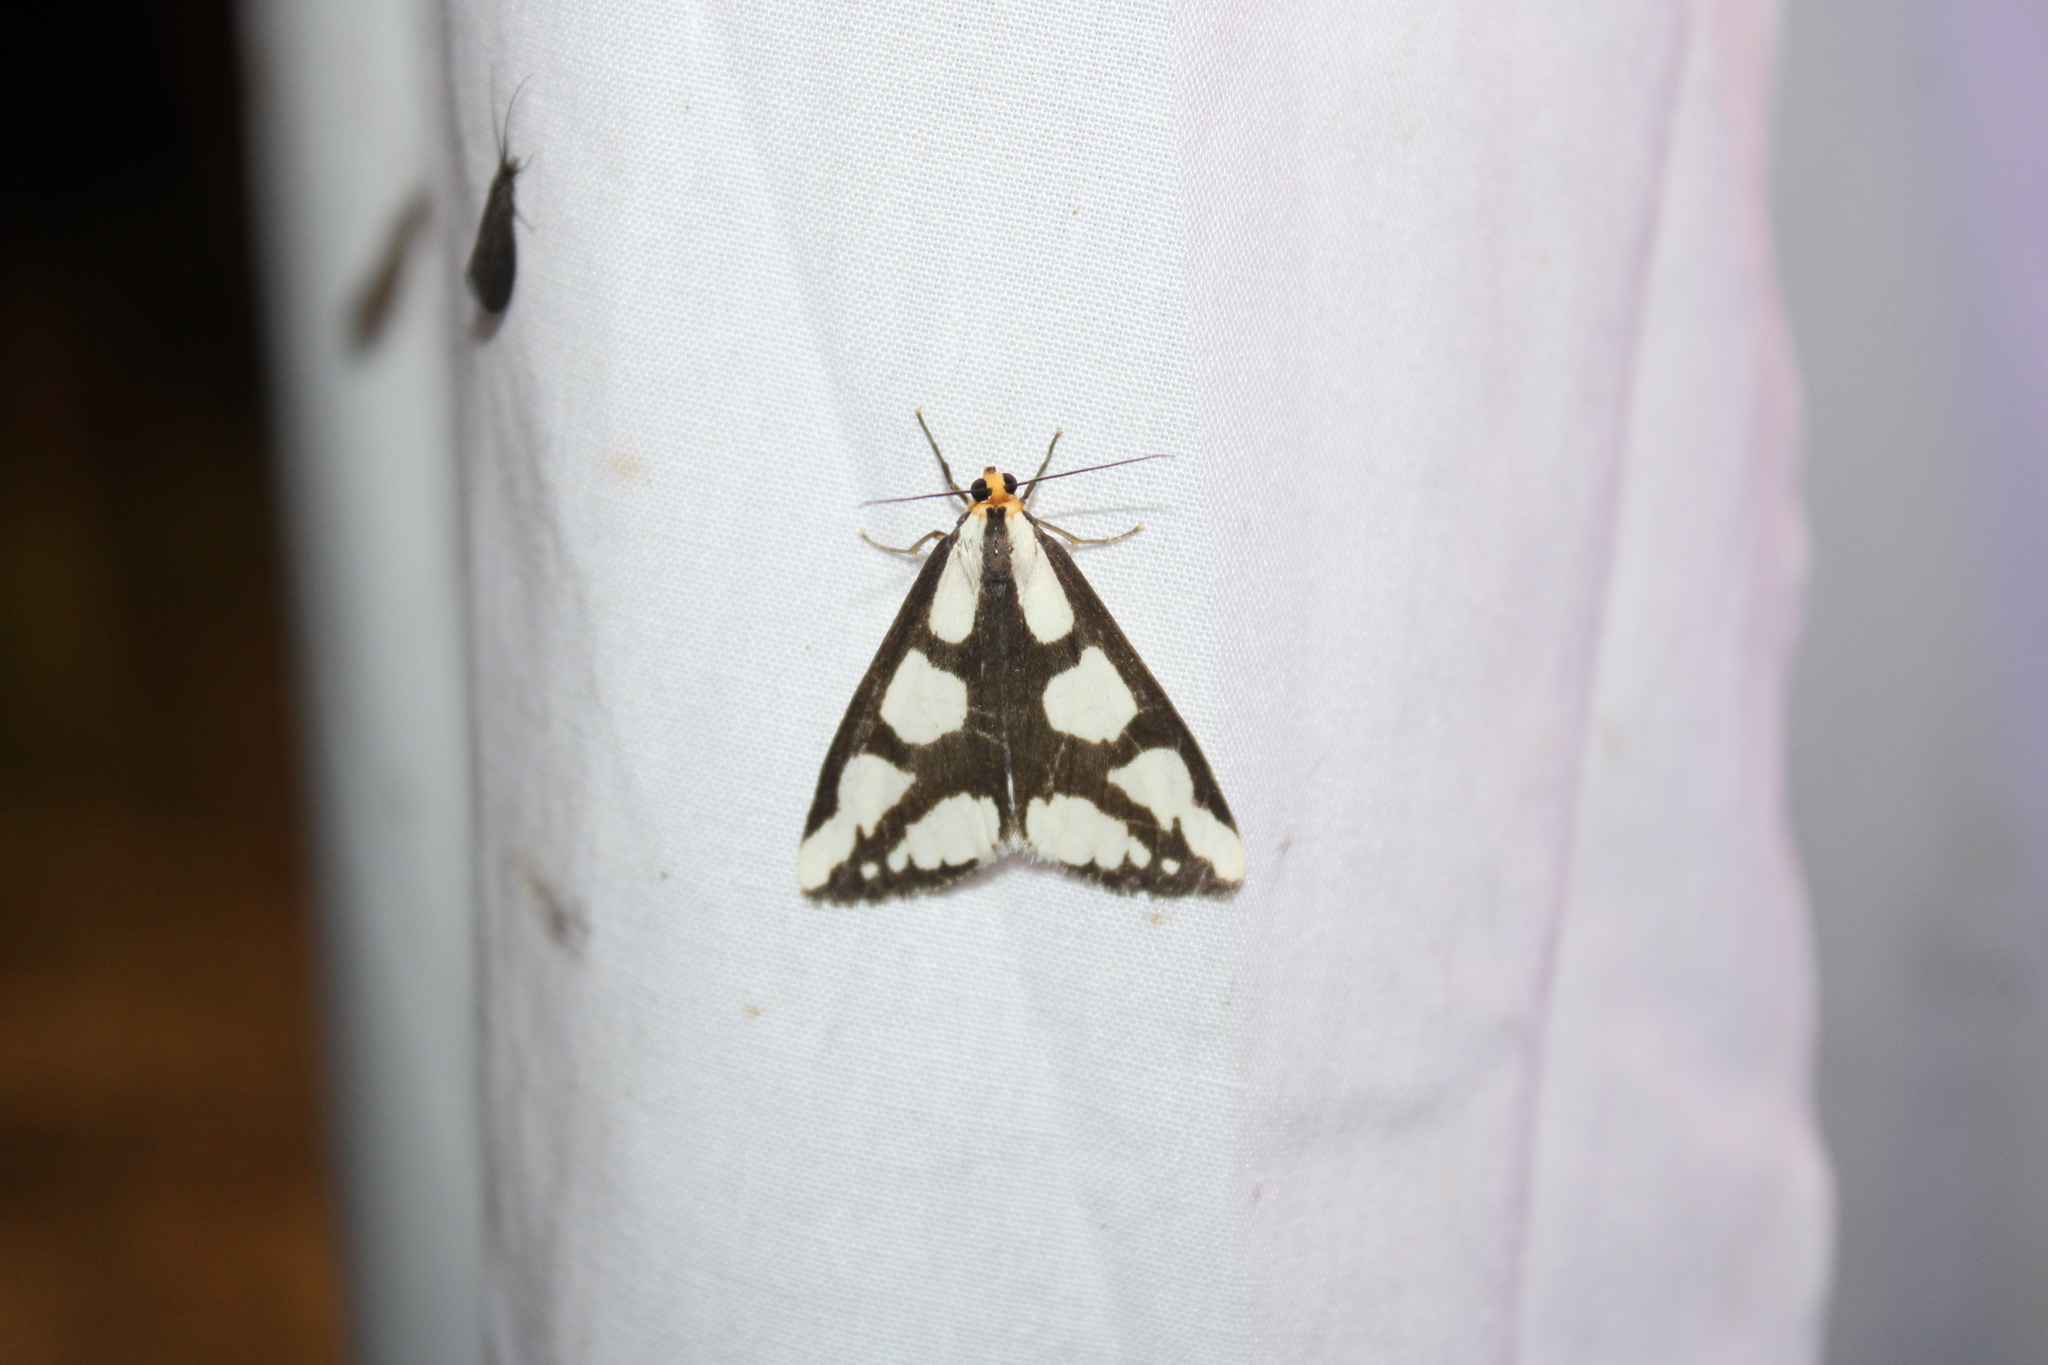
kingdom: Animalia
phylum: Arthropoda
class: Insecta
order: Lepidoptera
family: Erebidae
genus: Haploa
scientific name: Haploa lecontei
